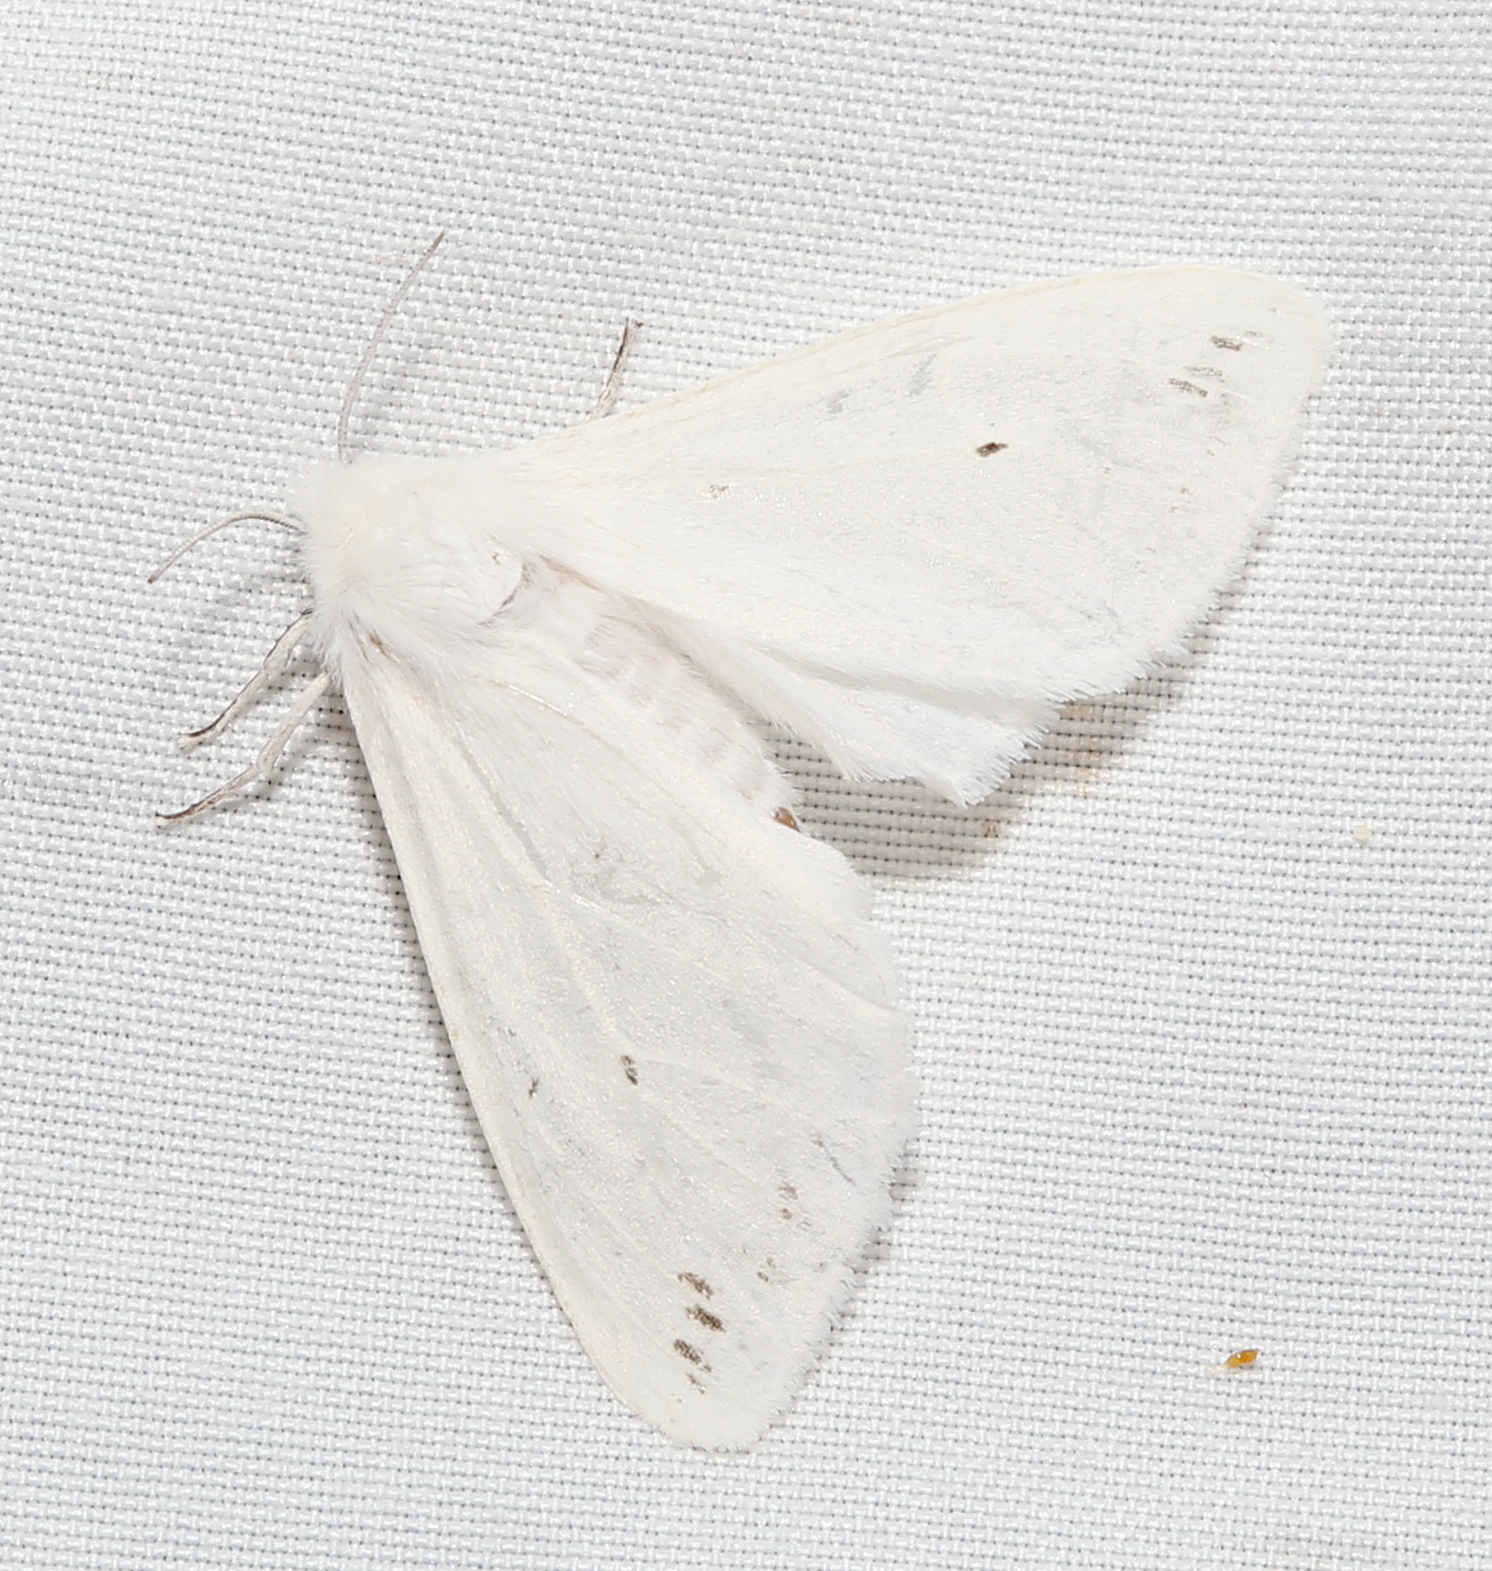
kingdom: Animalia
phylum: Arthropoda
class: Insecta
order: Lepidoptera
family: Erebidae
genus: Spilosoma
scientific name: Spilosoma congrua
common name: Agreeable tiger moth
